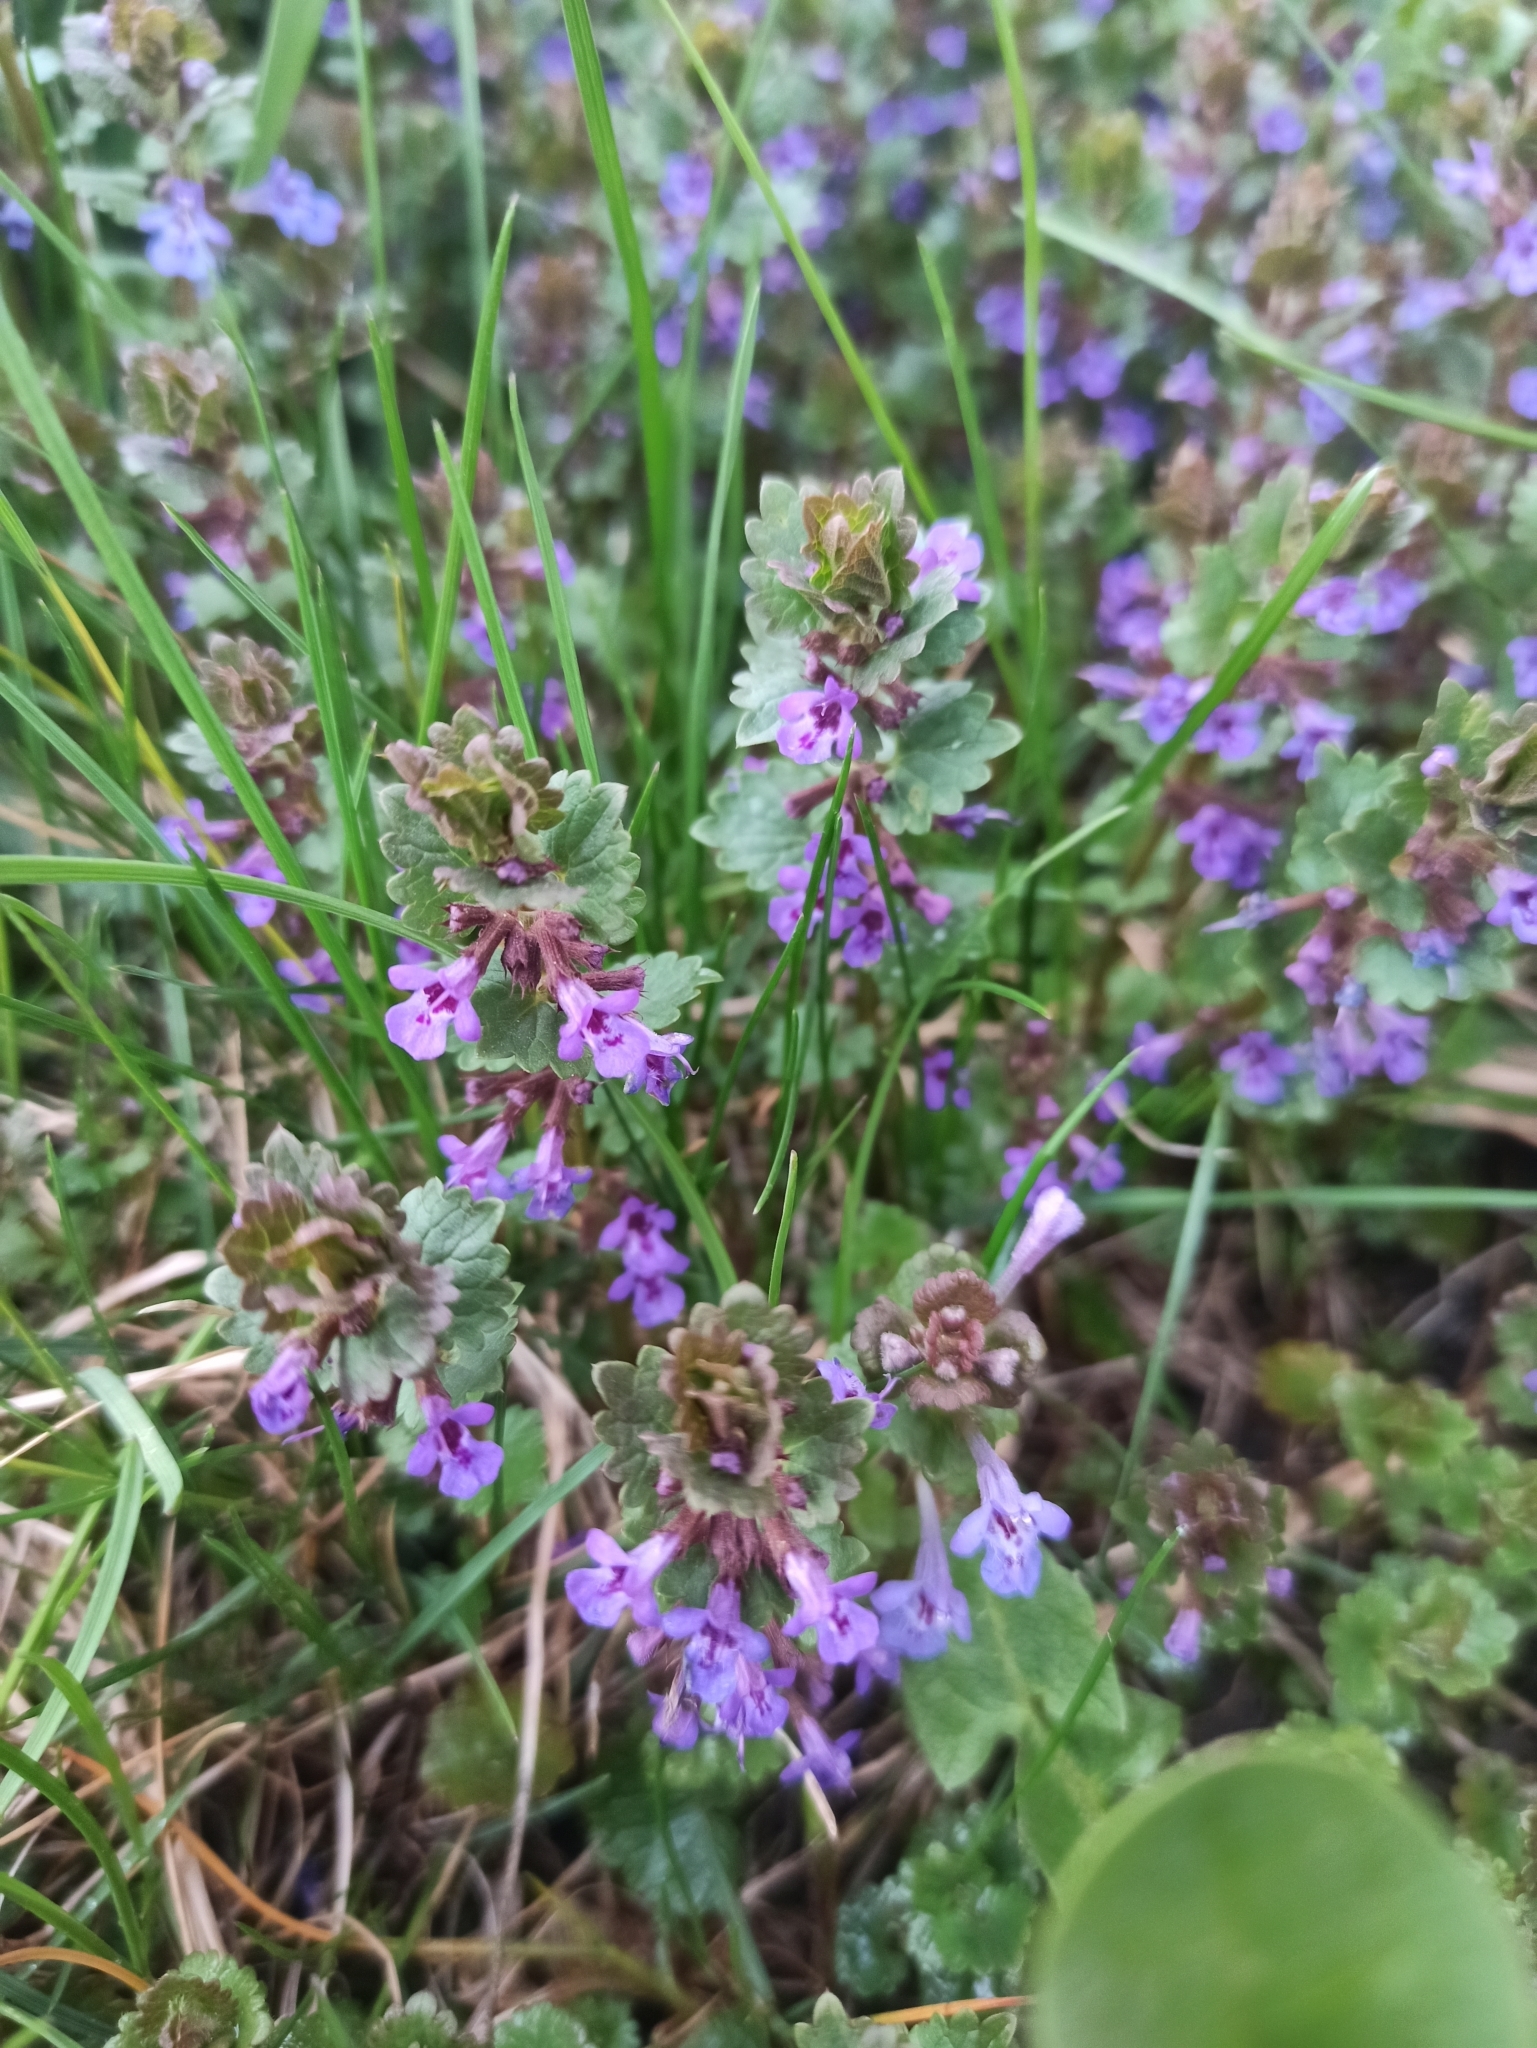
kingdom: Plantae
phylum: Tracheophyta
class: Magnoliopsida
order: Lamiales
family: Lamiaceae
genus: Glechoma
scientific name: Glechoma hederacea
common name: Ground ivy
